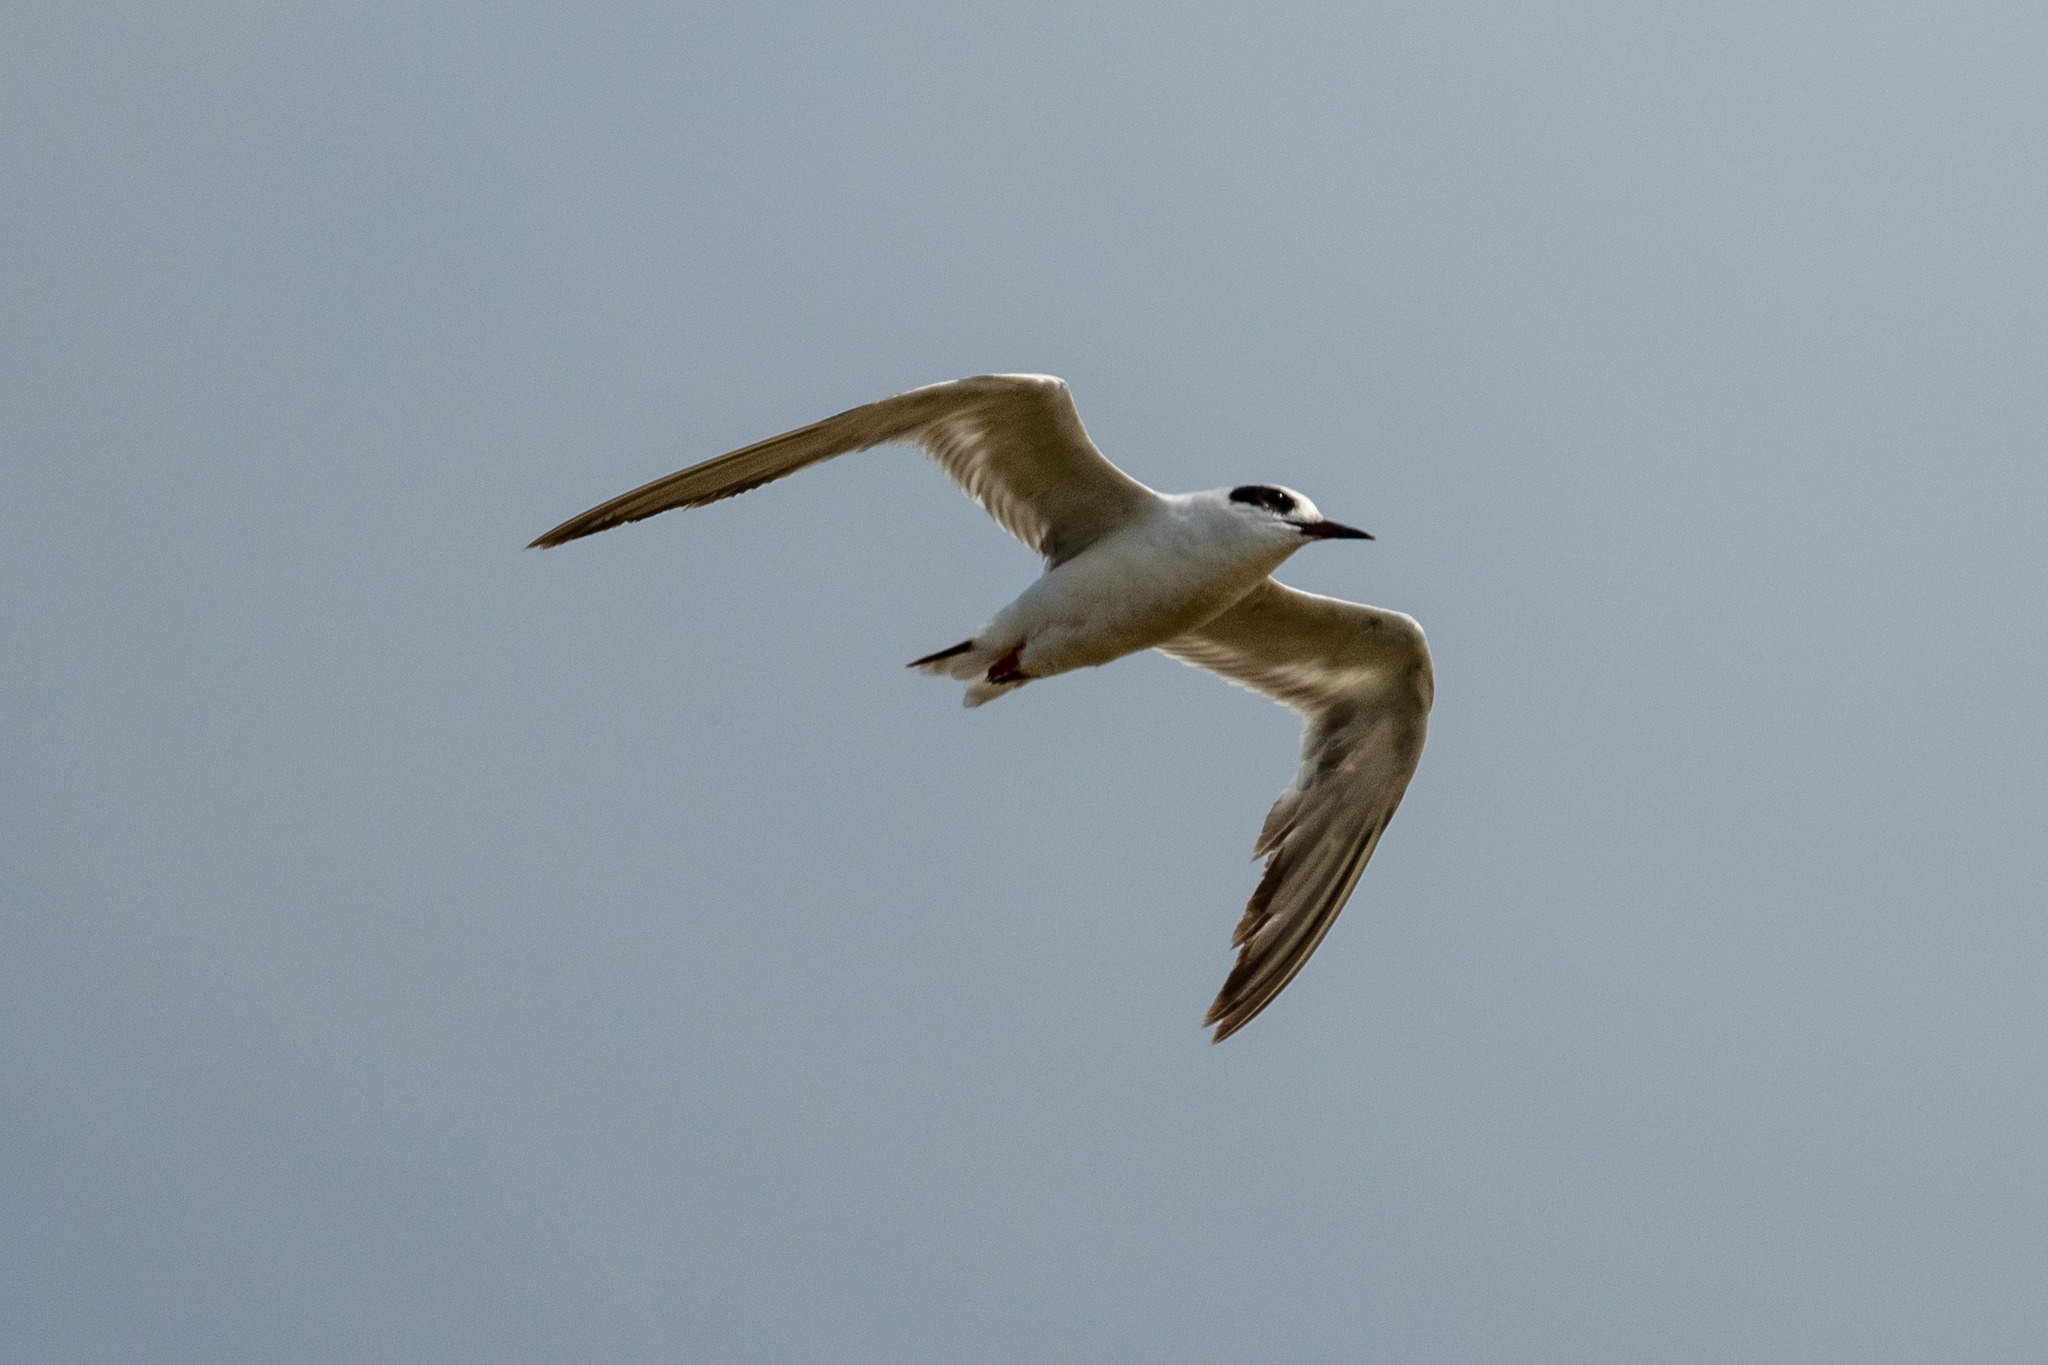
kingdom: Animalia
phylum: Chordata
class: Aves
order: Charadriiformes
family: Laridae
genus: Sterna
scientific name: Sterna forsteri
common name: Forster's tern
